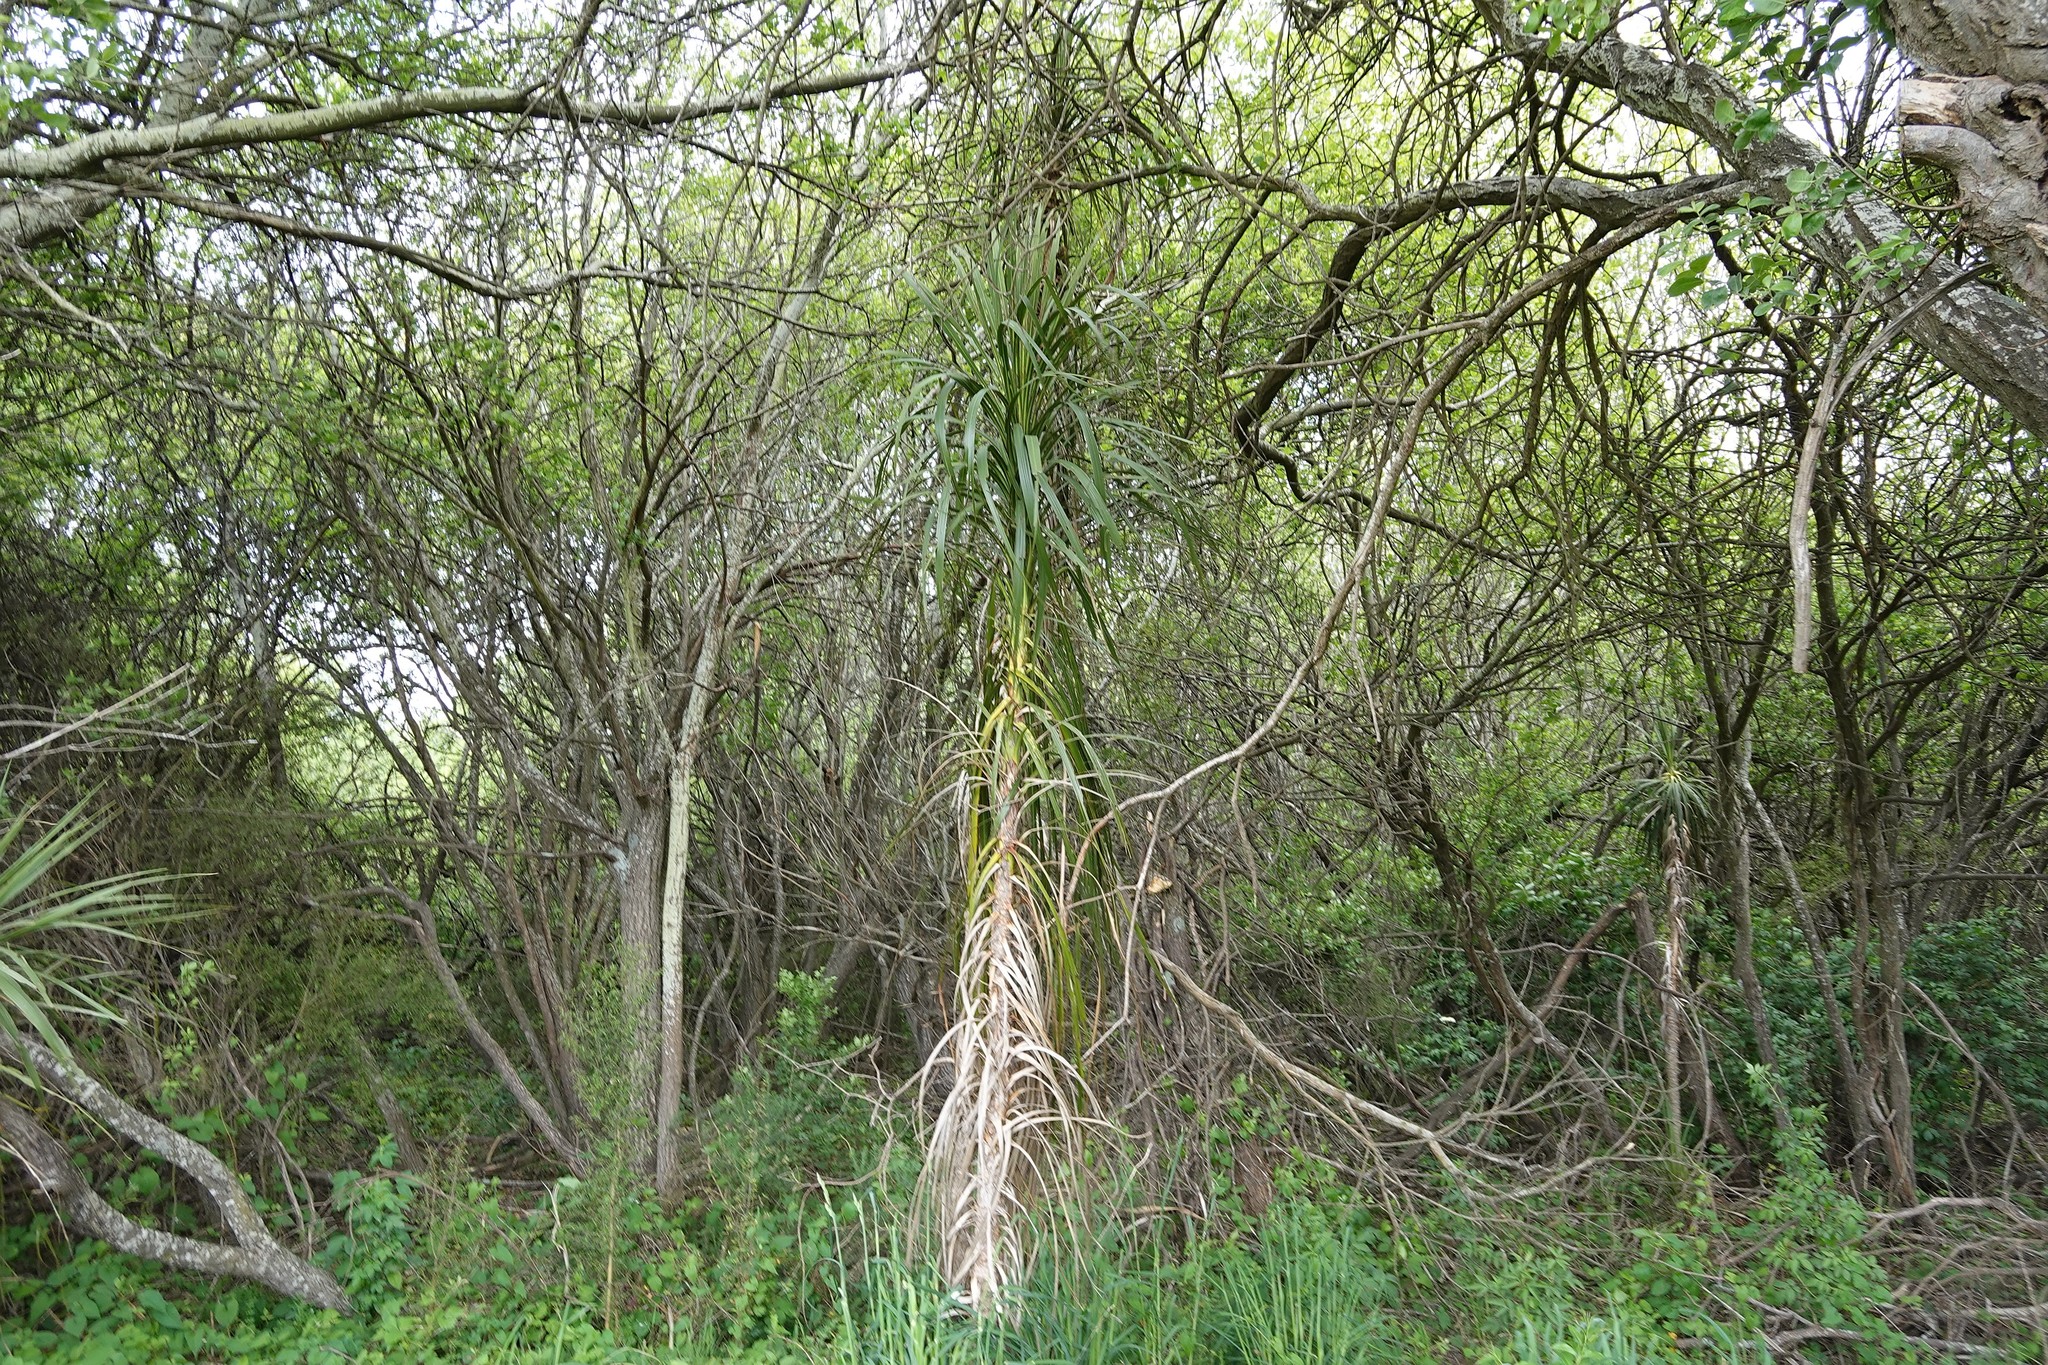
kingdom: Plantae
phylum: Tracheophyta
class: Liliopsida
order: Asparagales
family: Asparagaceae
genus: Cordyline
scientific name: Cordyline australis
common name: Cabbage-palm
